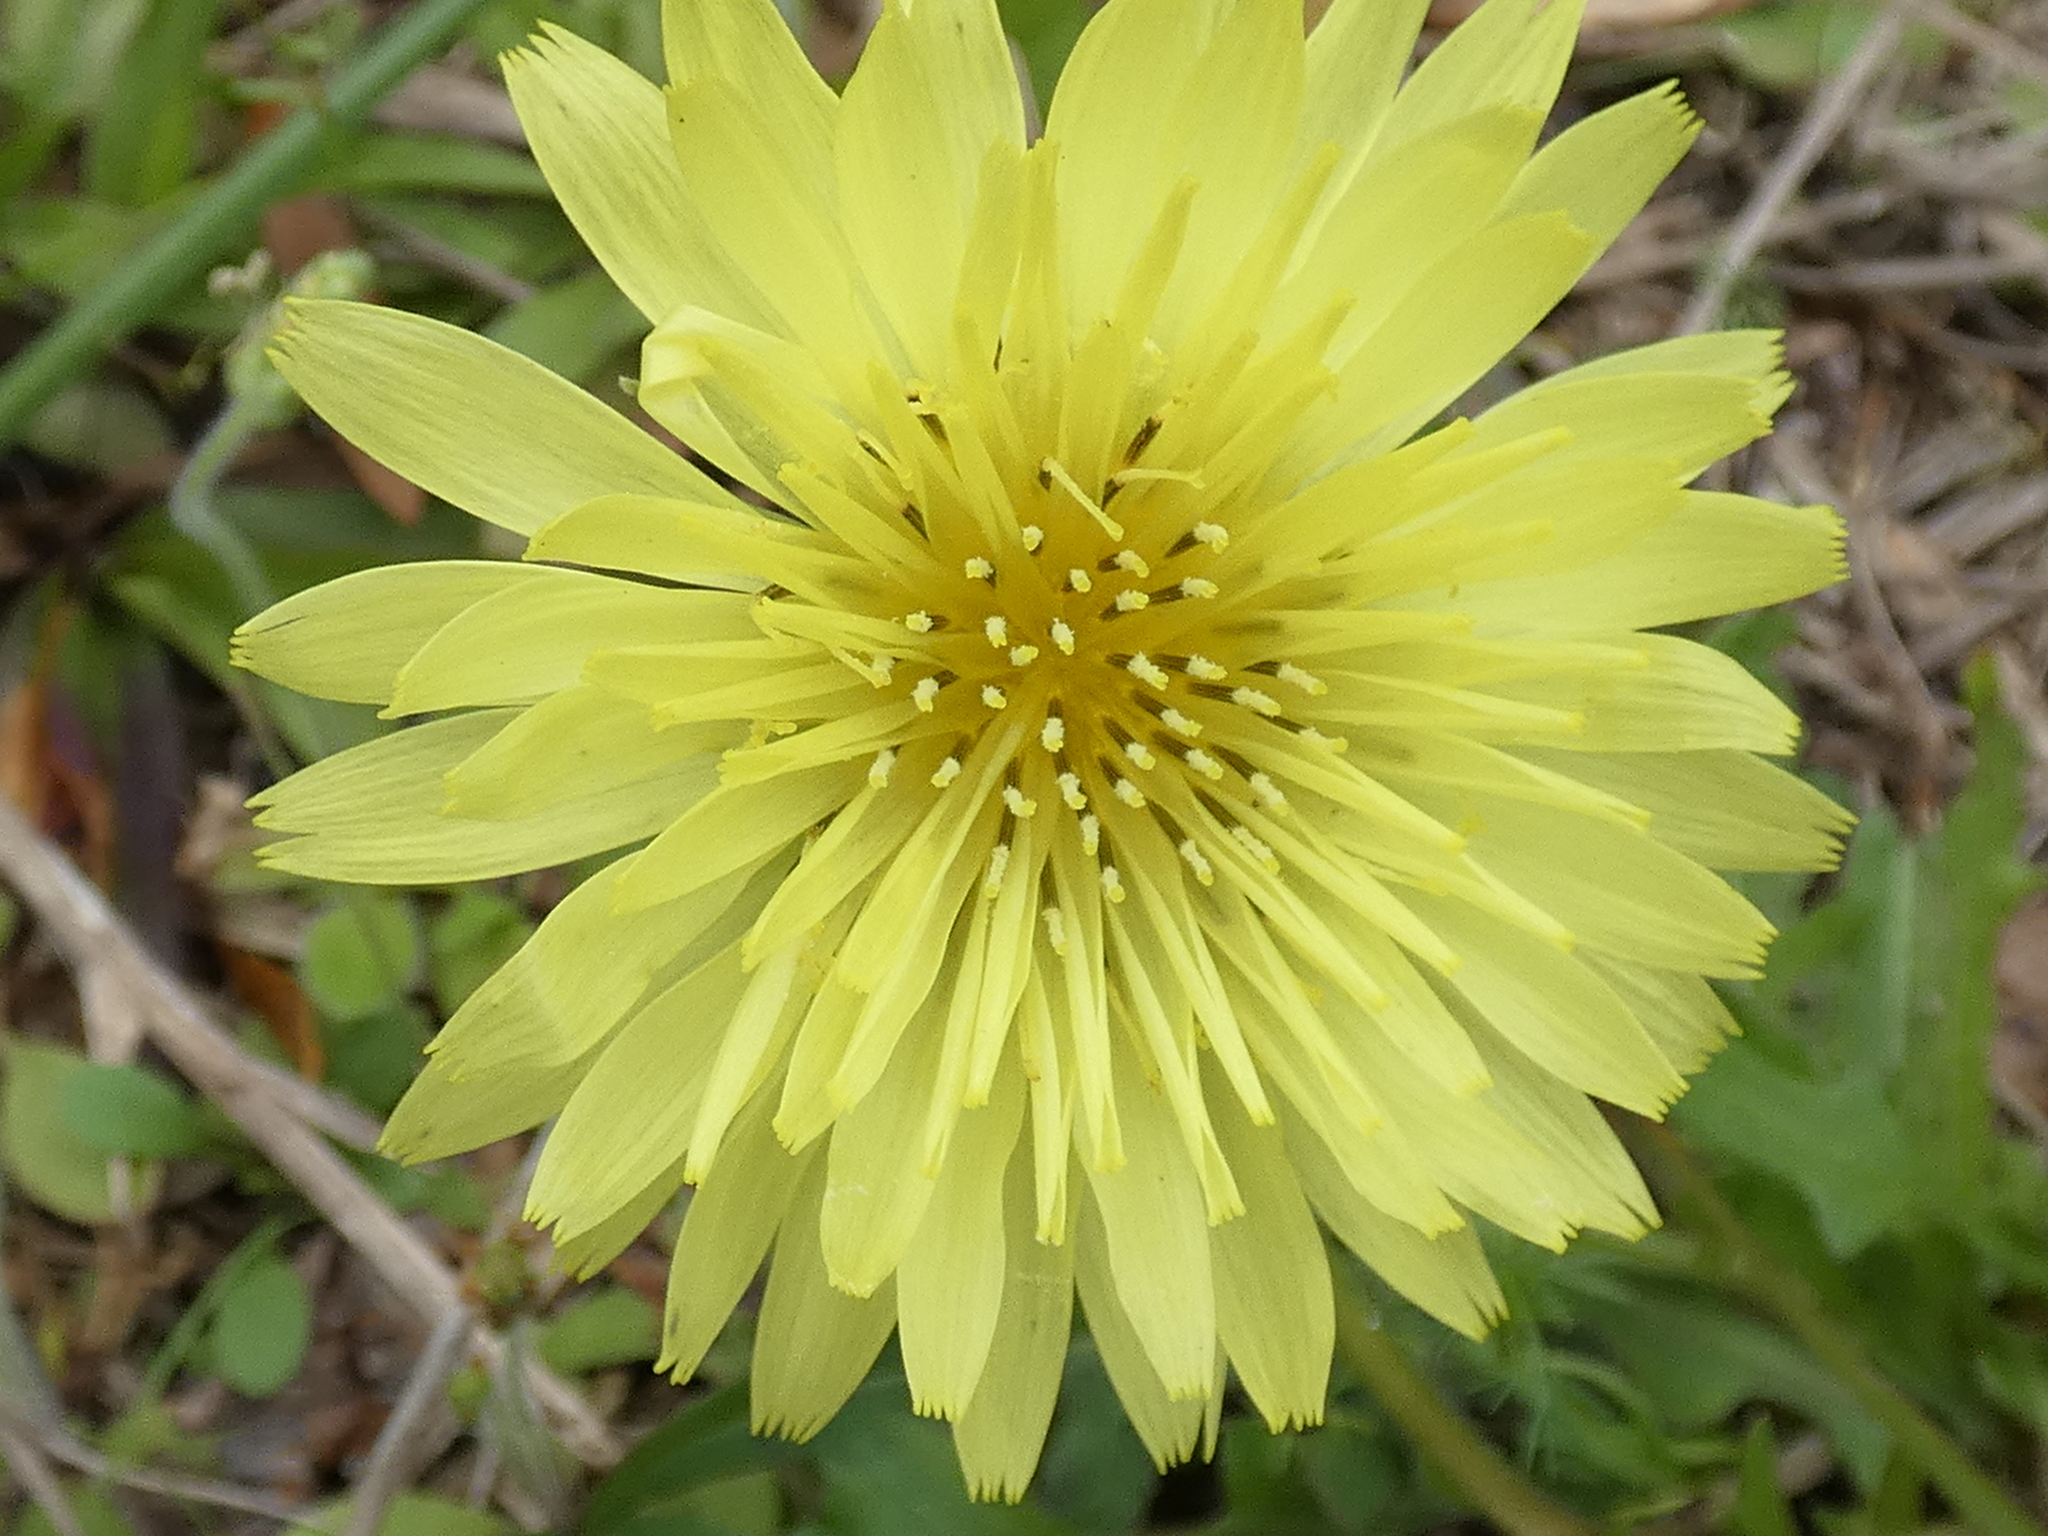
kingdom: Plantae
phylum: Tracheophyta
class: Magnoliopsida
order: Asterales
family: Asteraceae
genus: Pyrrhopappus
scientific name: Pyrrhopappus carolinianus
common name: Carolina desert-chicory
